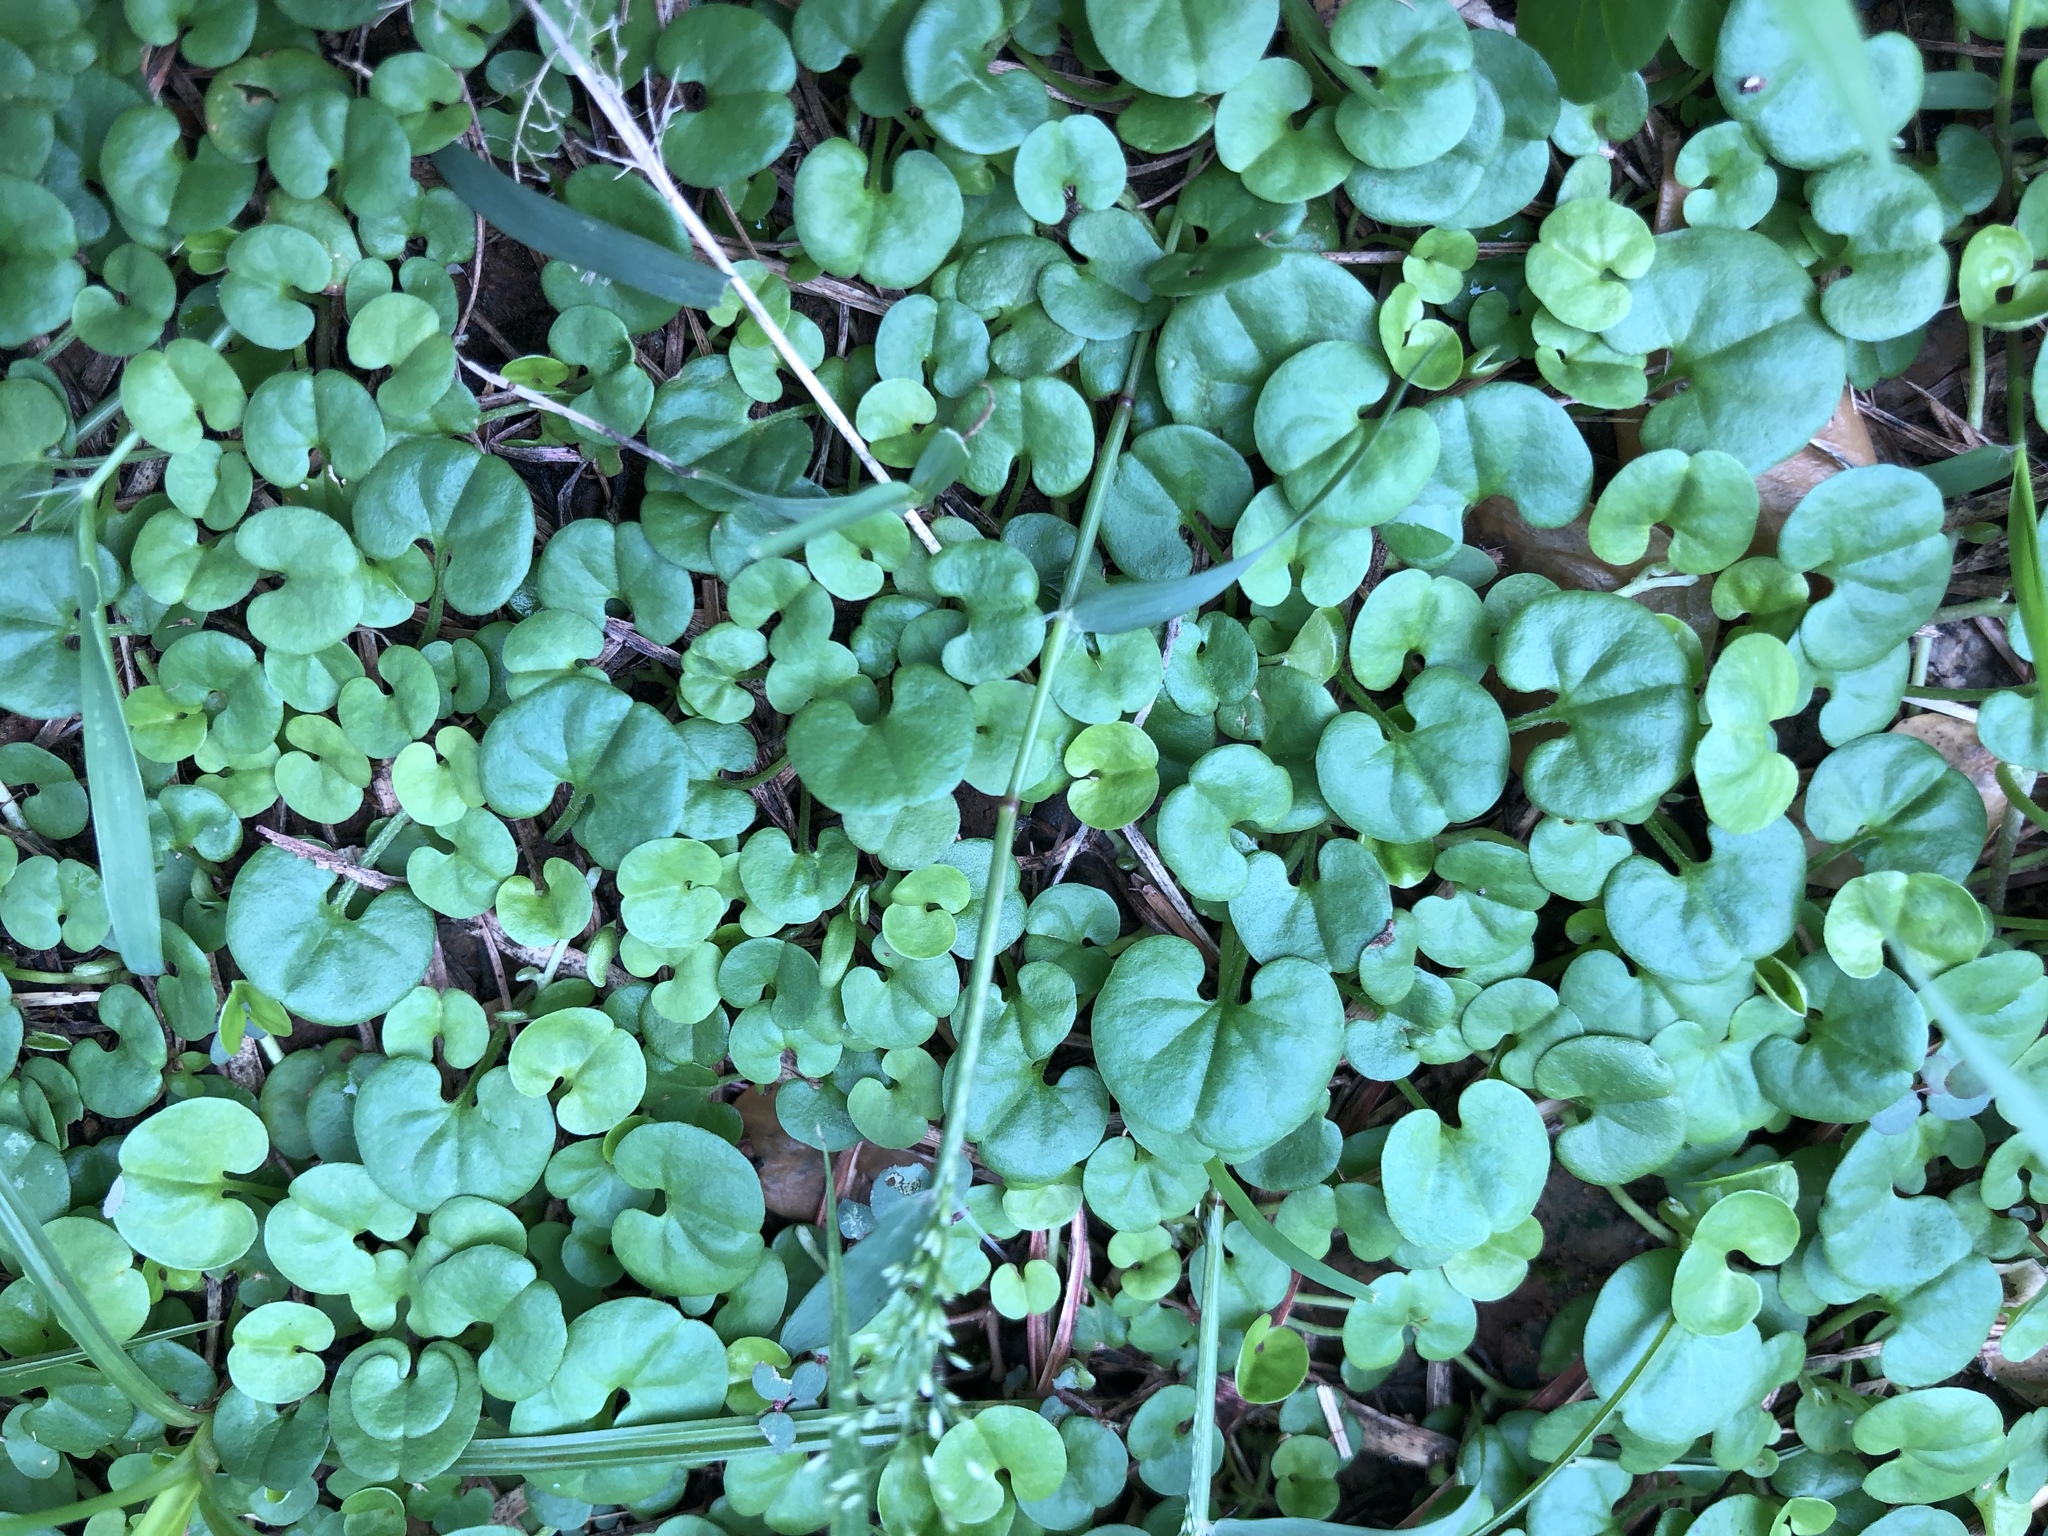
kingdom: Plantae
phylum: Tracheophyta
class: Magnoliopsida
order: Solanales
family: Convolvulaceae
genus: Dichondra
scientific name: Dichondra micrantha
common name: Kidneyweed
